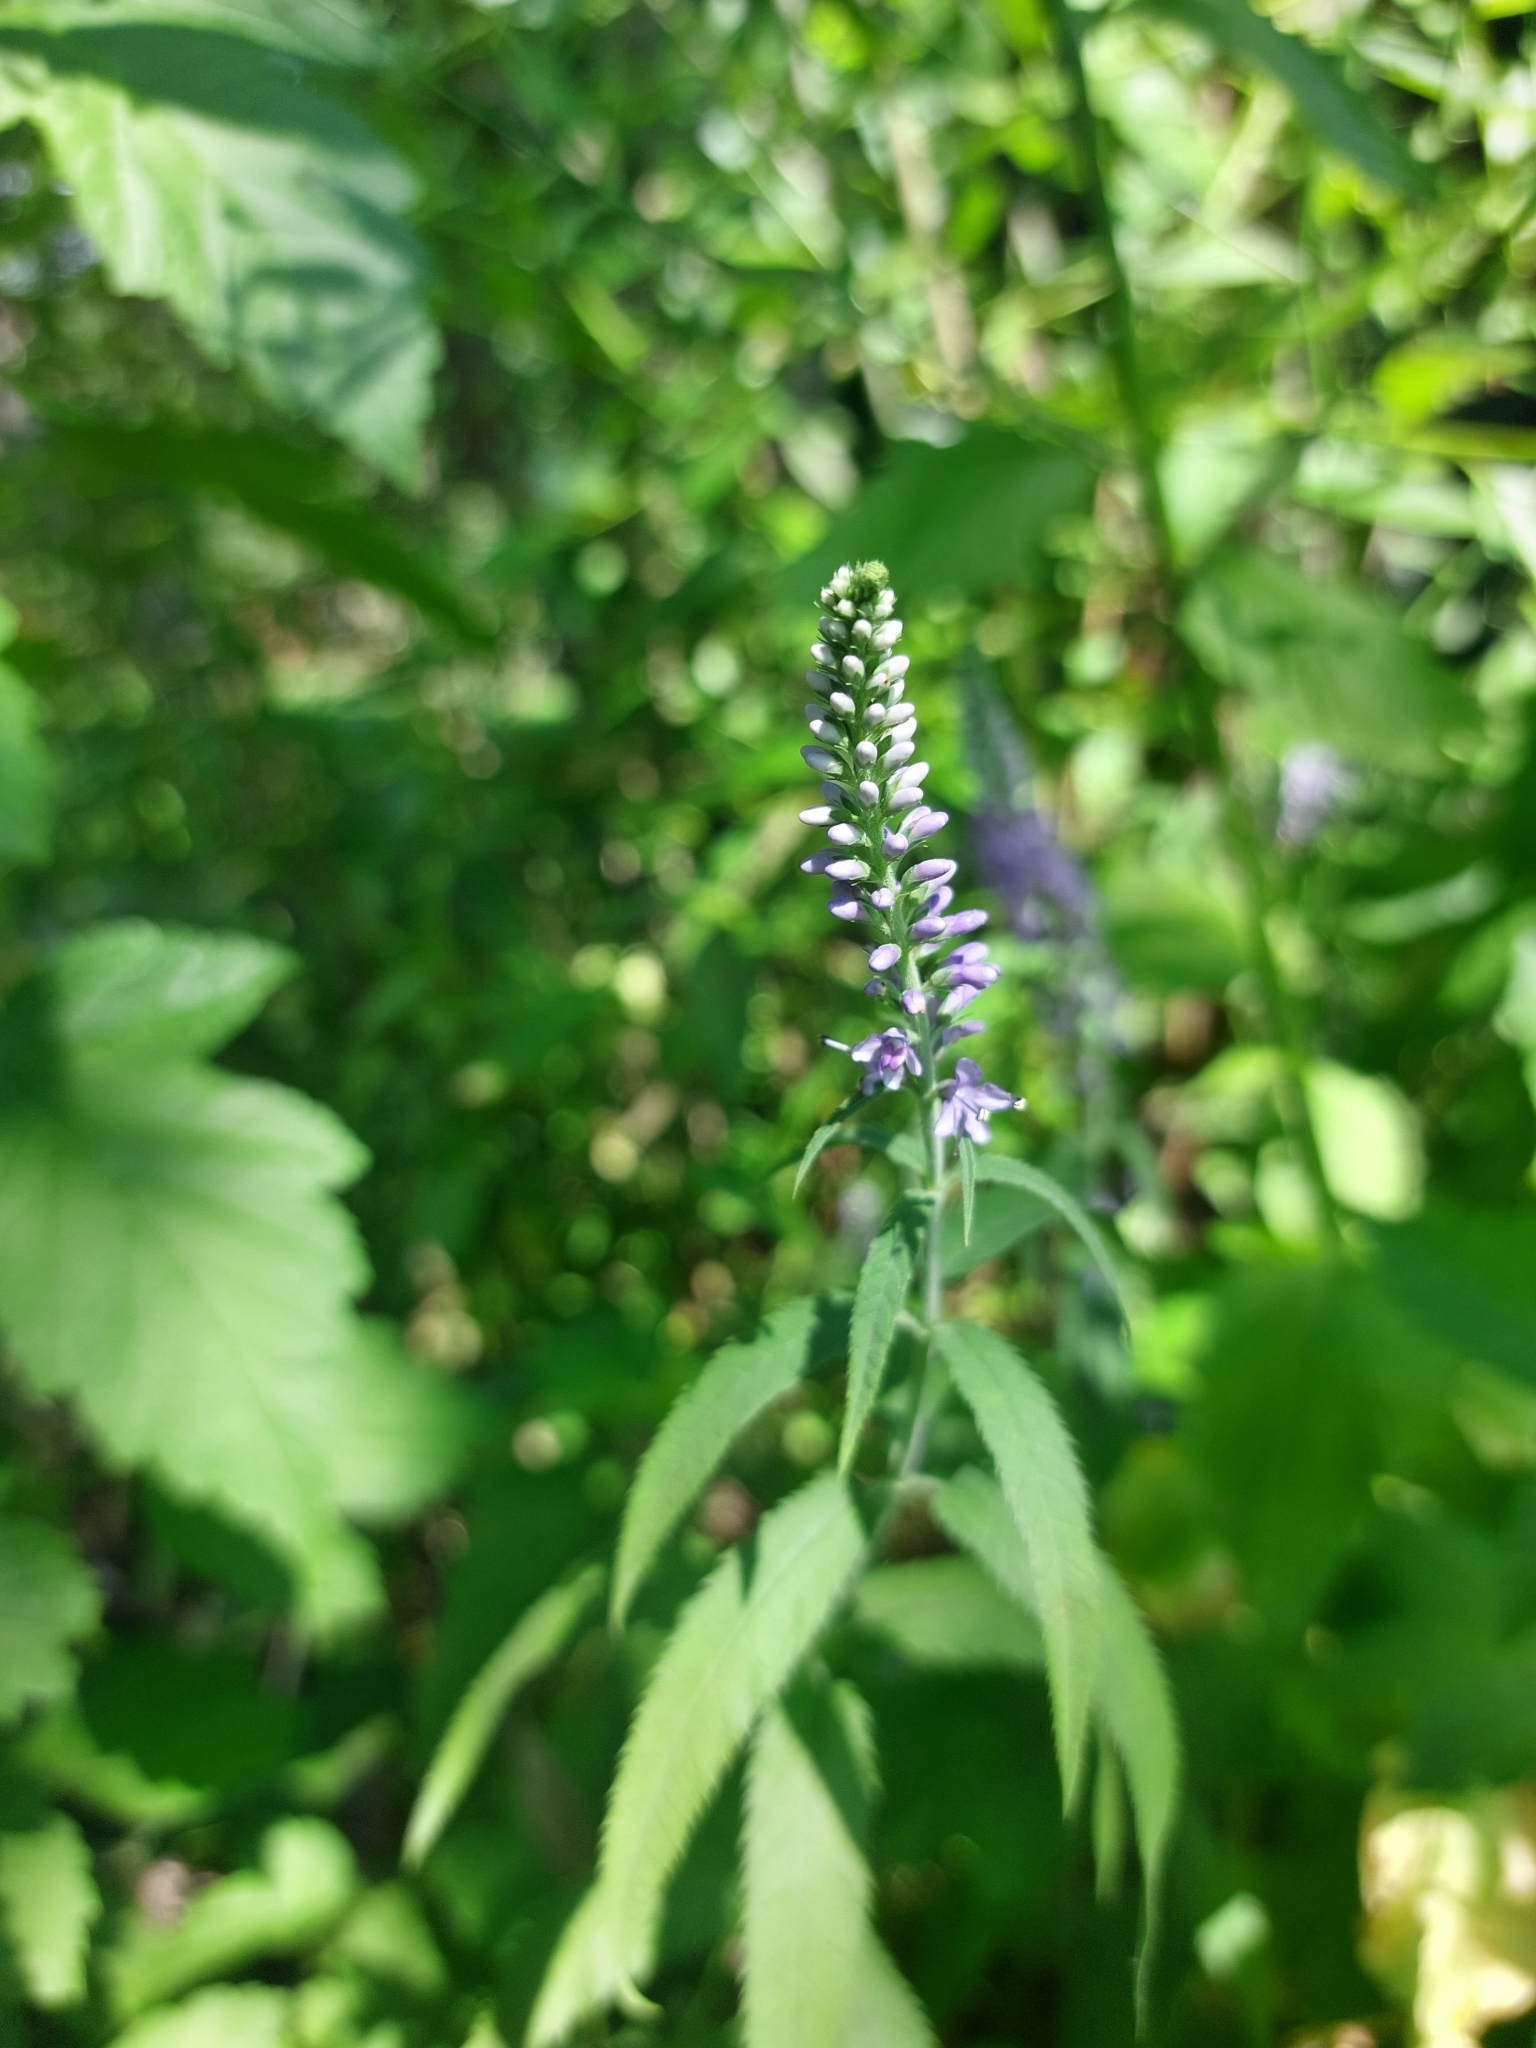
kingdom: Plantae
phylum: Tracheophyta
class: Magnoliopsida
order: Lamiales
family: Plantaginaceae
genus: Veronica
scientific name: Veronica longifolia
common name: Garden speedwell
